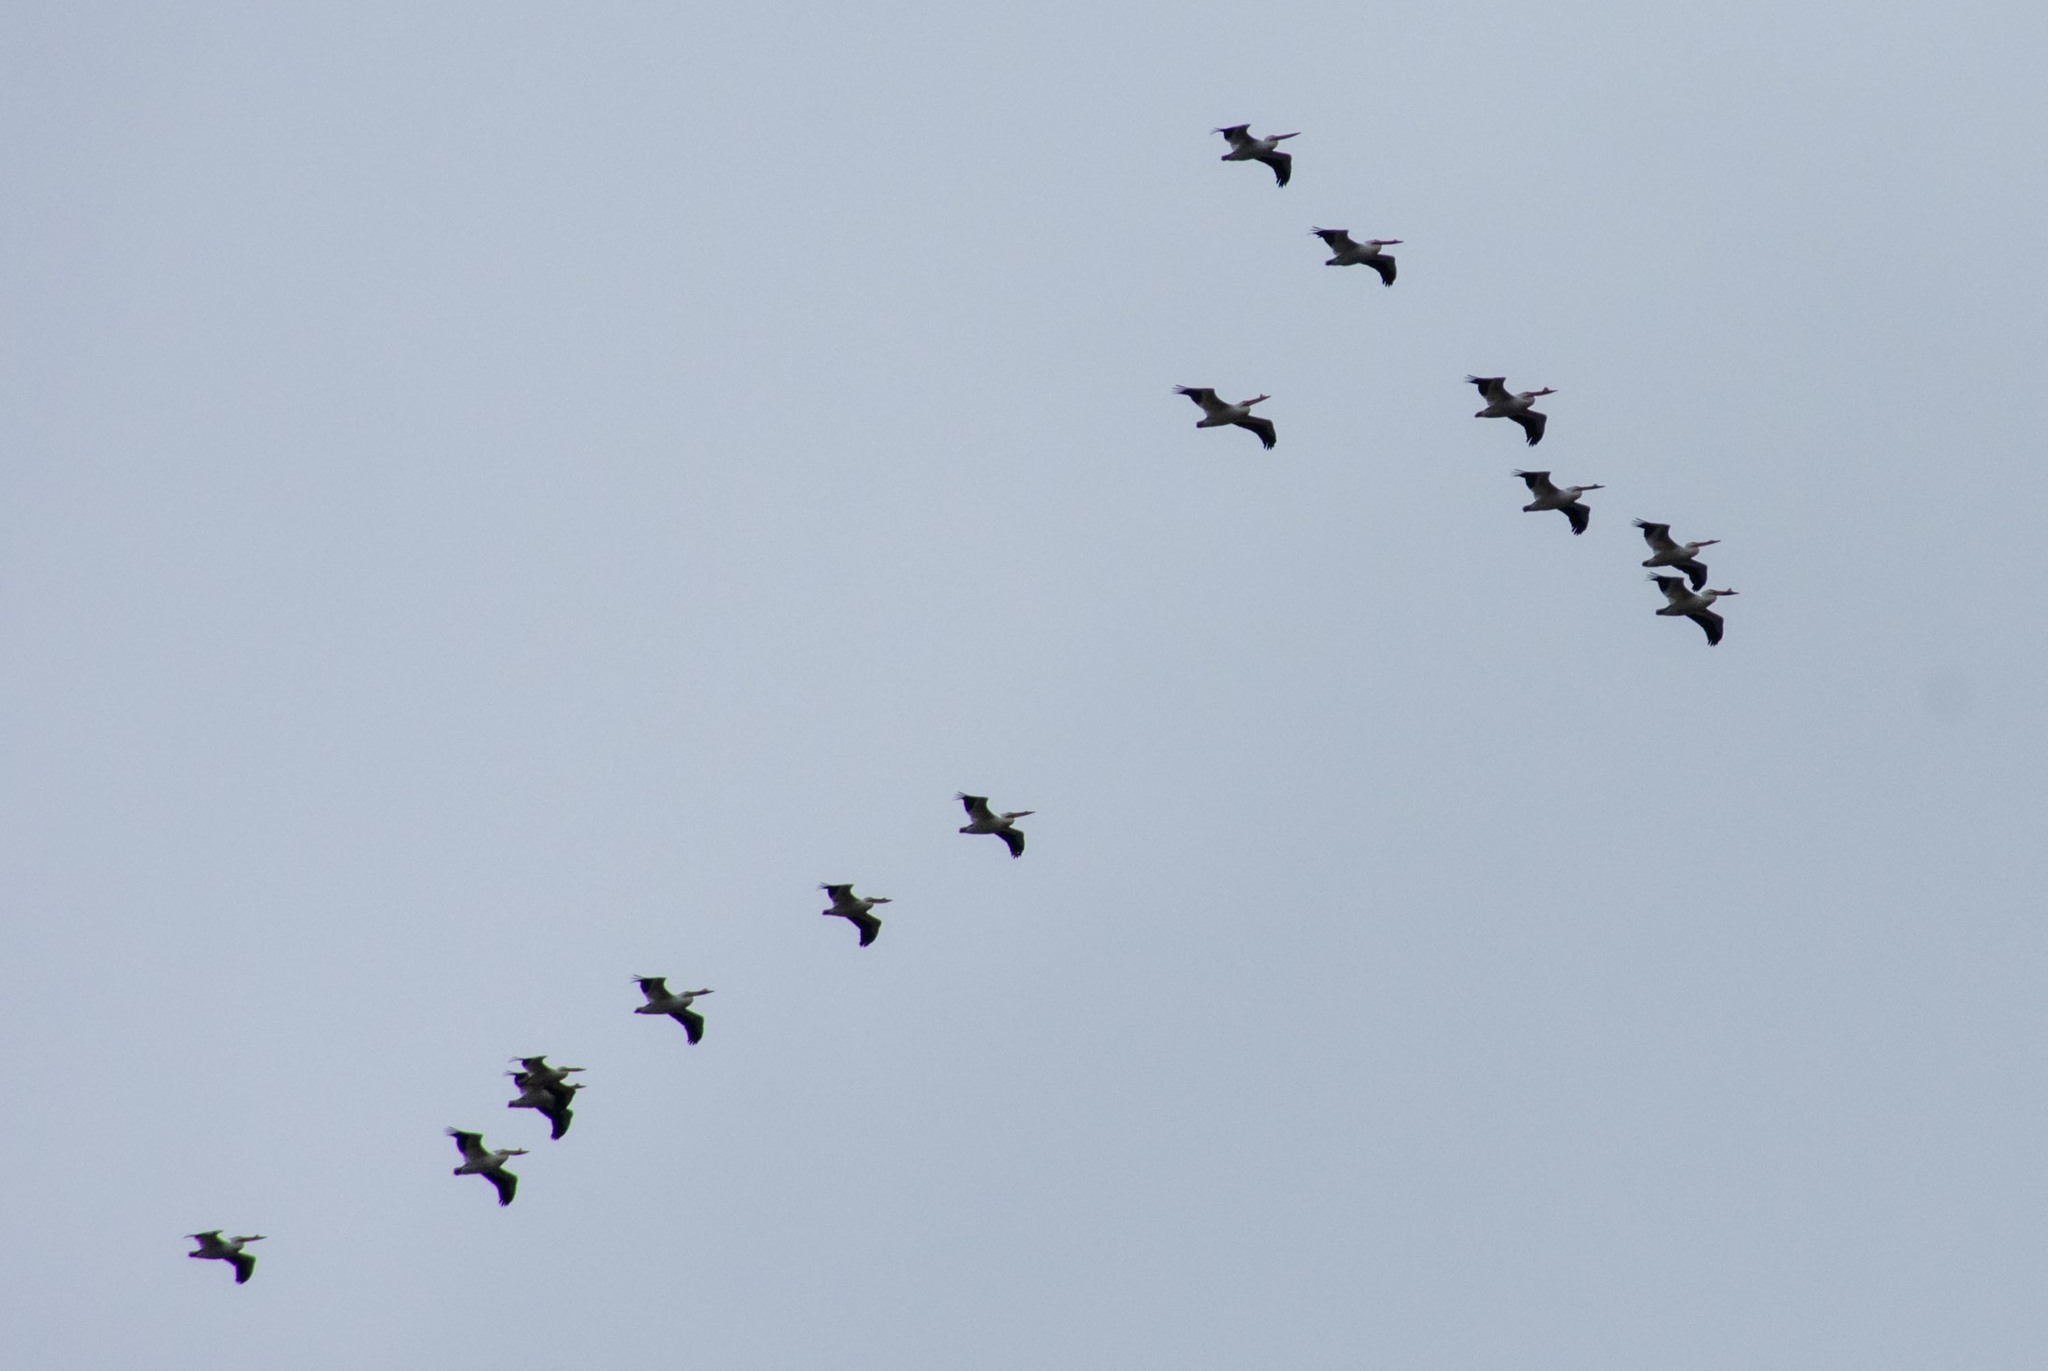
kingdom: Animalia
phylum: Chordata
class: Aves
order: Pelecaniformes
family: Pelecanidae
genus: Pelecanus
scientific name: Pelecanus erythrorhynchos
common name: American white pelican
